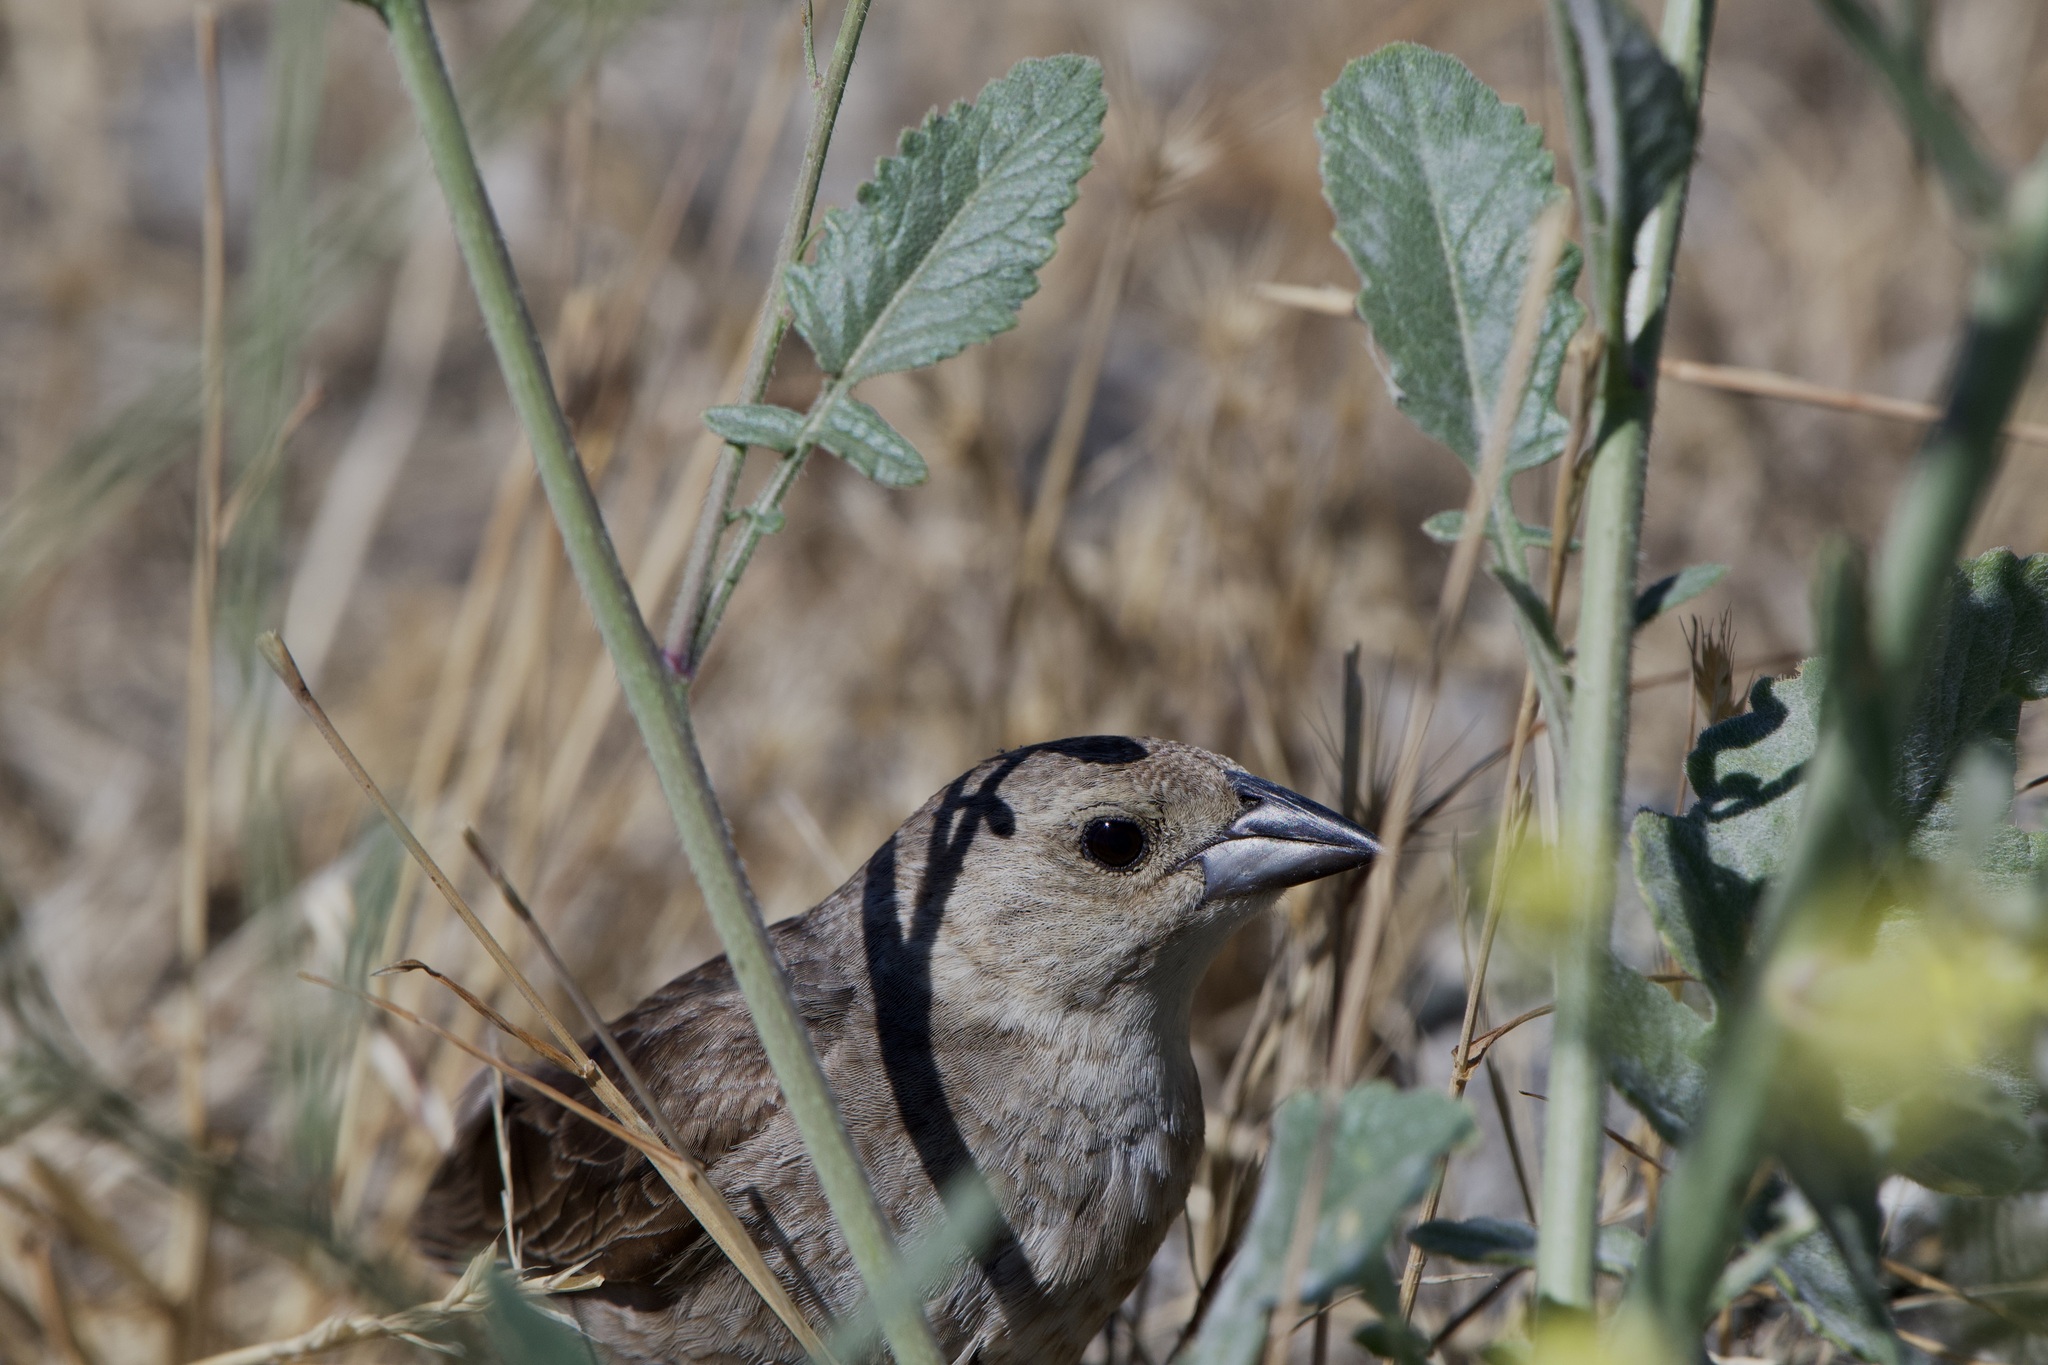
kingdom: Animalia
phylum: Chordata
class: Aves
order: Passeriformes
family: Icteridae
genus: Molothrus
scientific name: Molothrus ater
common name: Brown-headed cowbird
